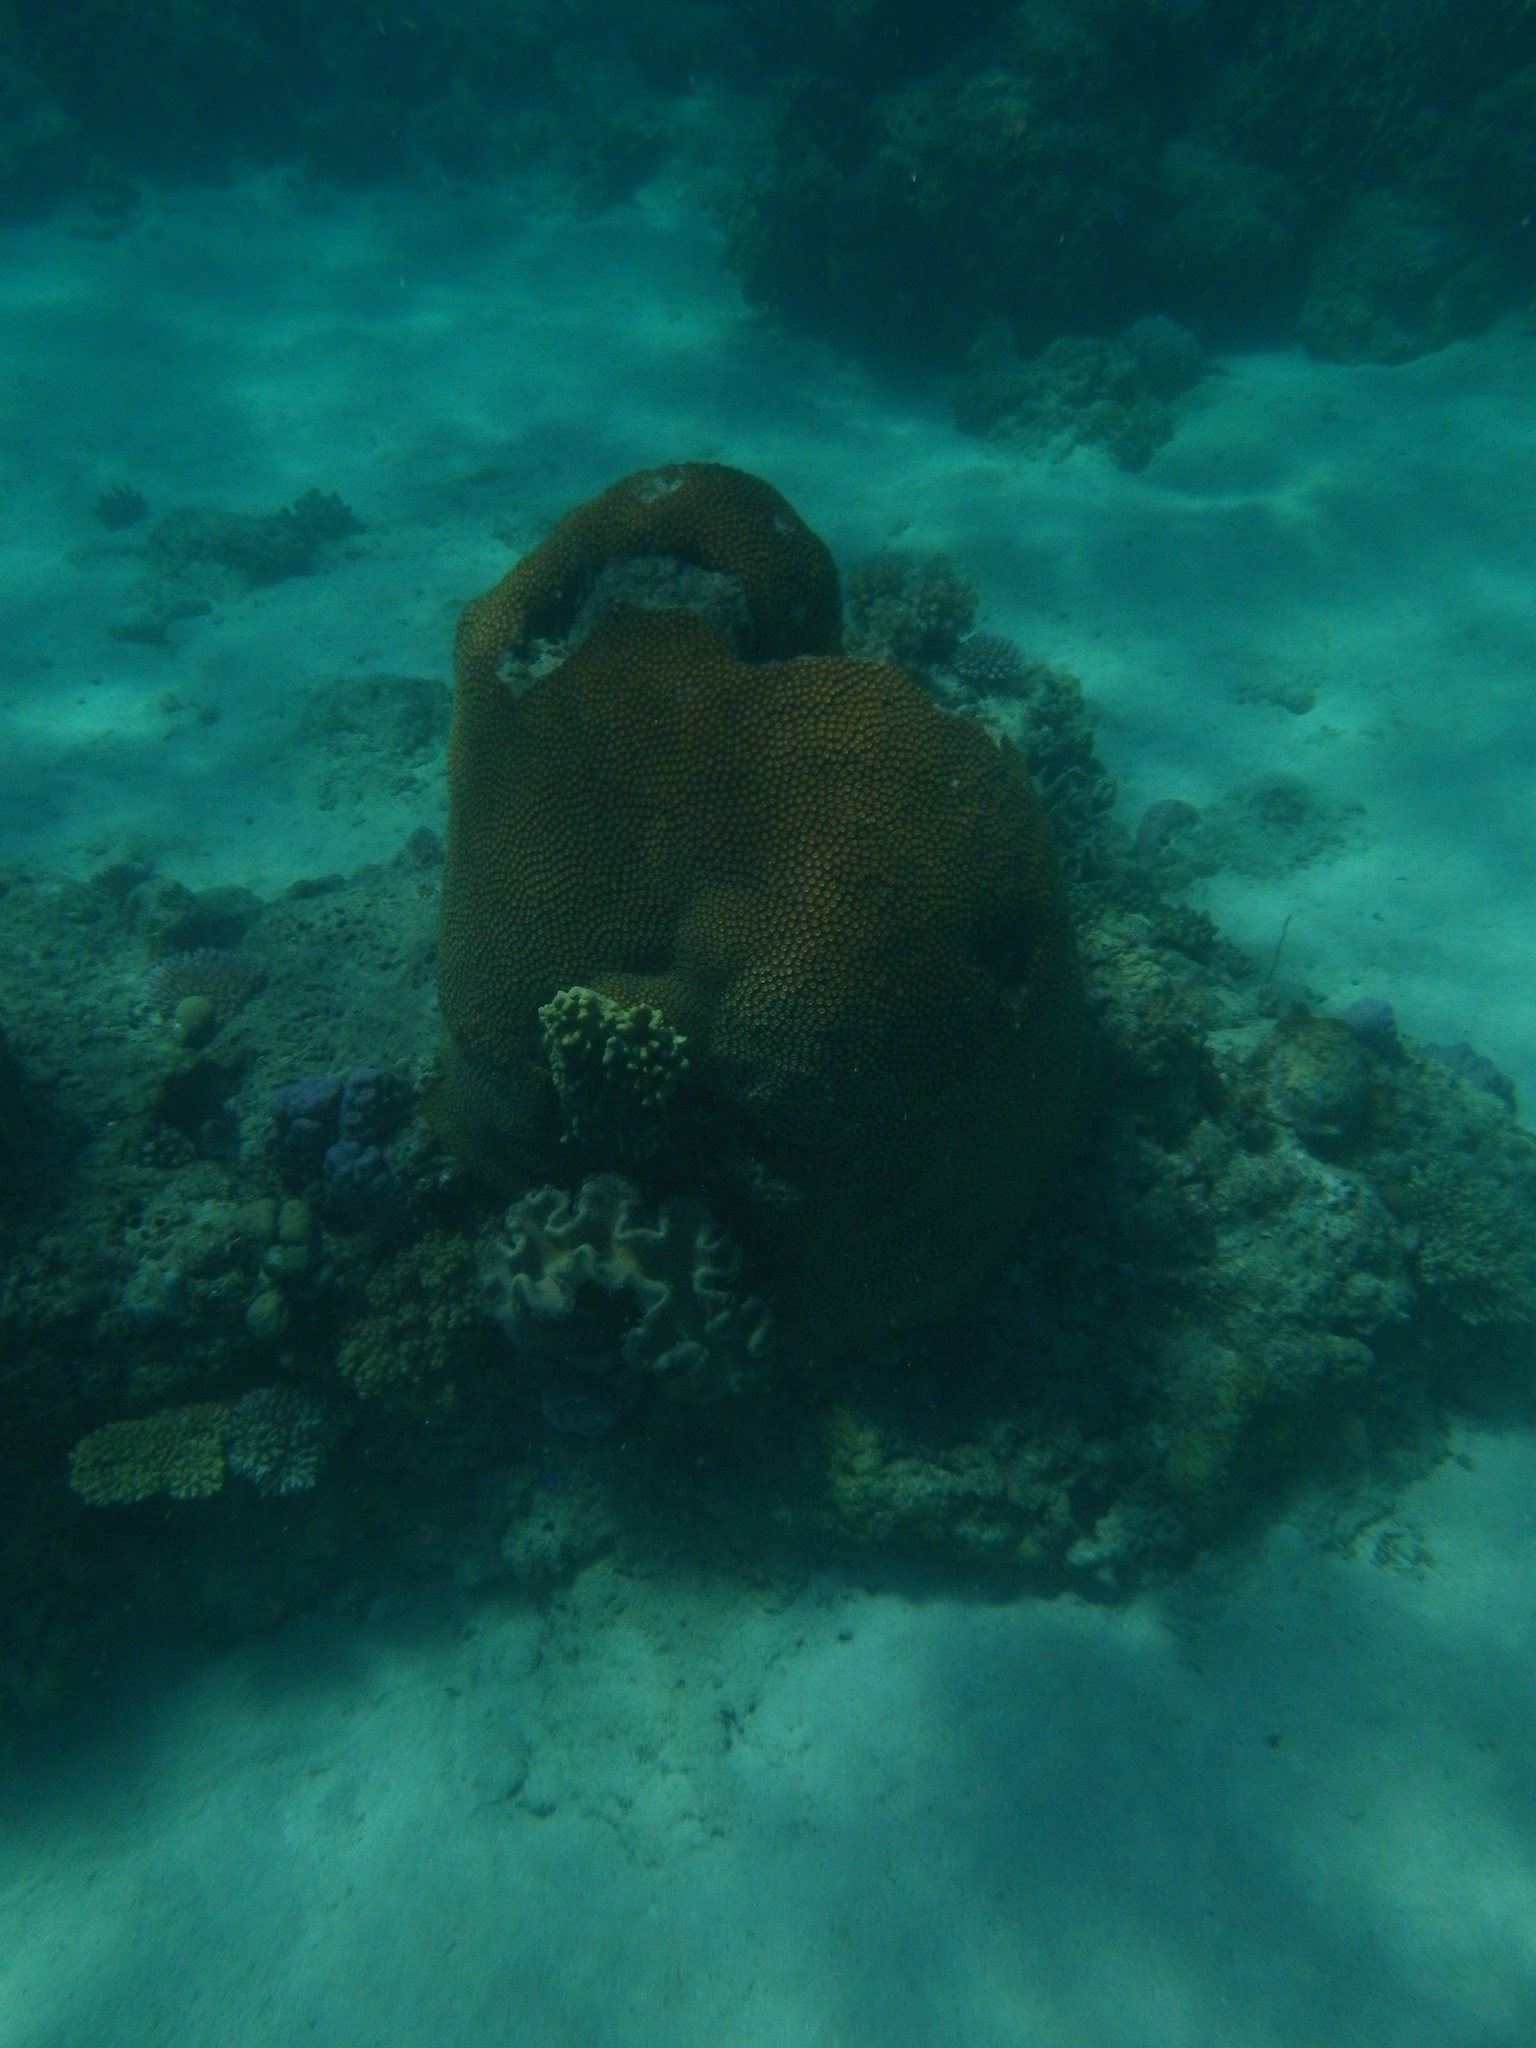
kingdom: Animalia
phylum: Cnidaria
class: Anthozoa
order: Scleractinia
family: Diploastraeidae
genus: Diploastrea
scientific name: Diploastrea heliopora
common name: Double-star coral
